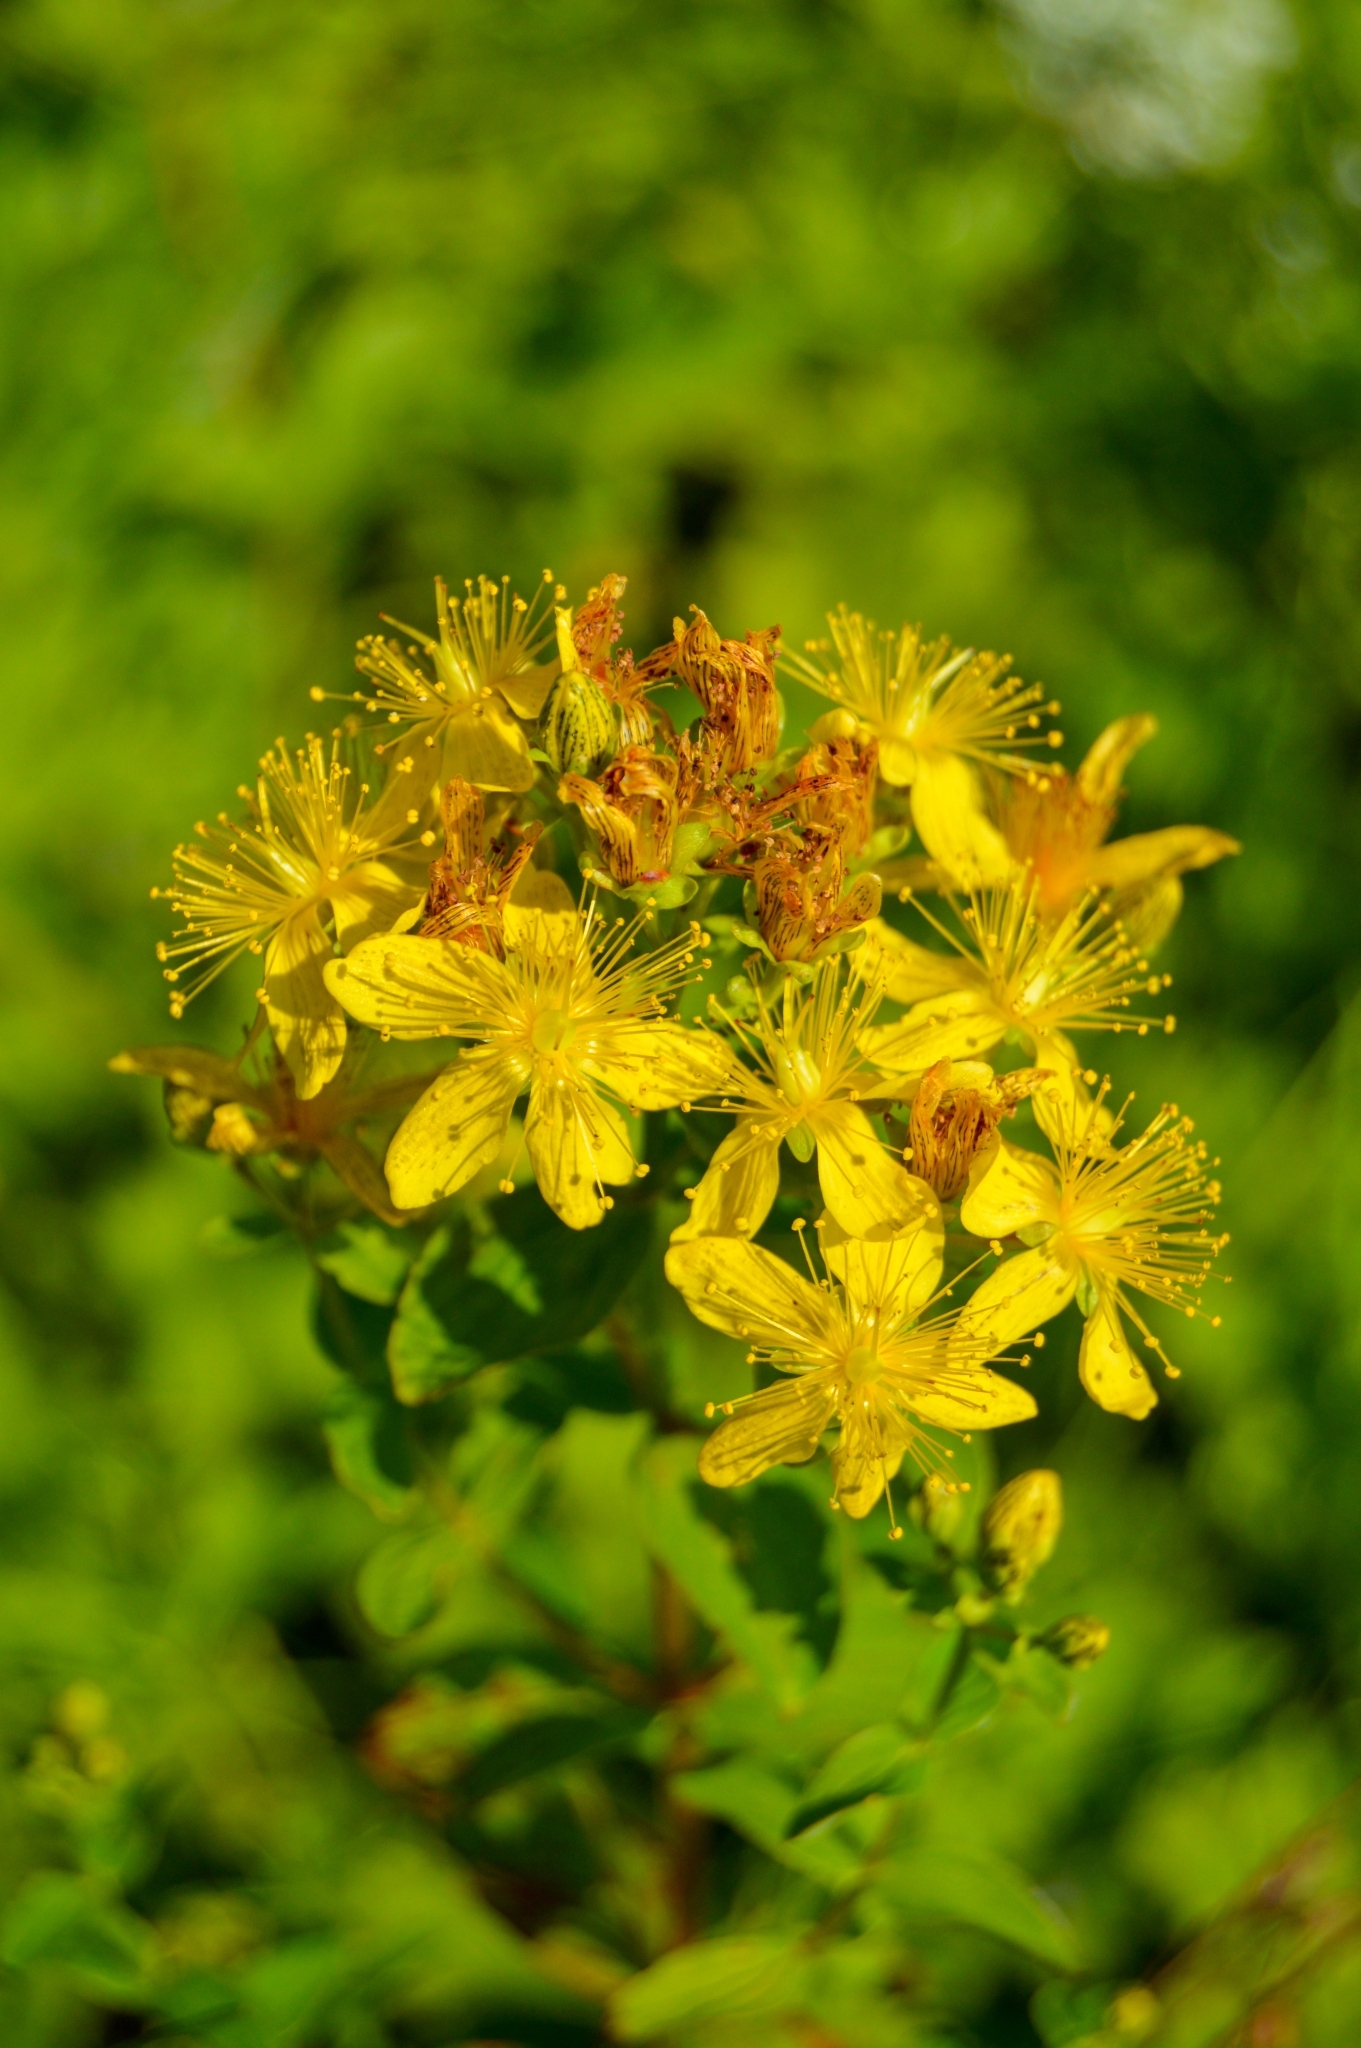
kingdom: Plantae
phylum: Tracheophyta
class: Magnoliopsida
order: Malpighiales
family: Hypericaceae
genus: Hypericum
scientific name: Hypericum maculatum
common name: Imperforate st. john's-wort
